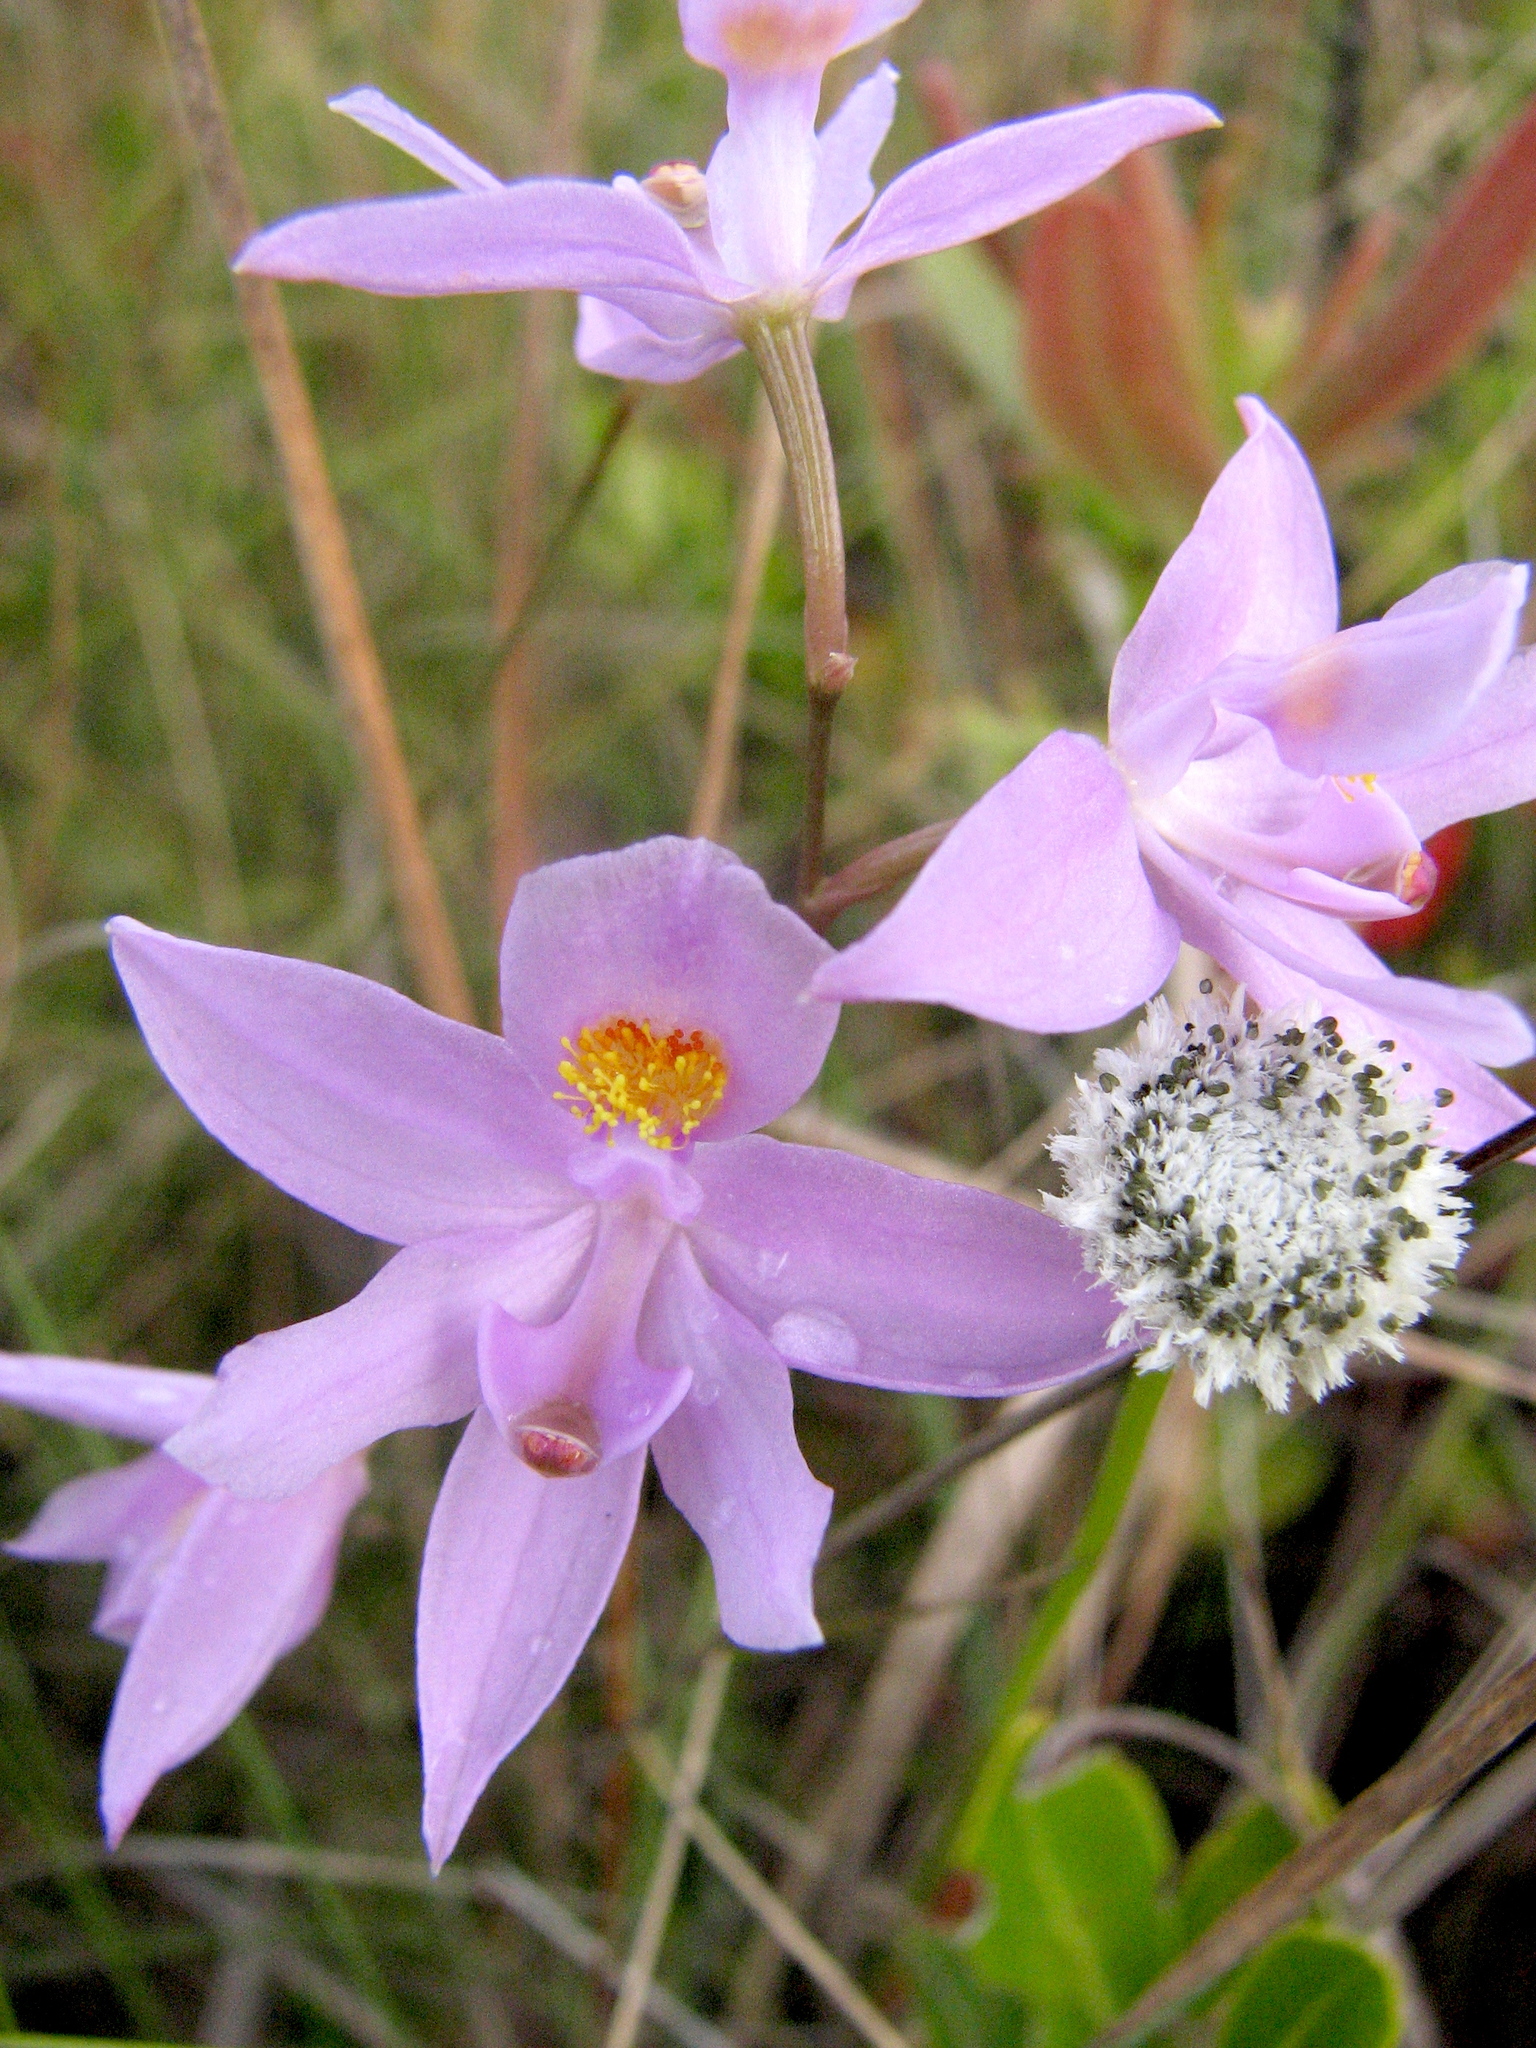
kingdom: Plantae
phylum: Tracheophyta
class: Liliopsida
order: Asparagales
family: Orchidaceae
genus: Calopogon
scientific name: Calopogon barbatus
